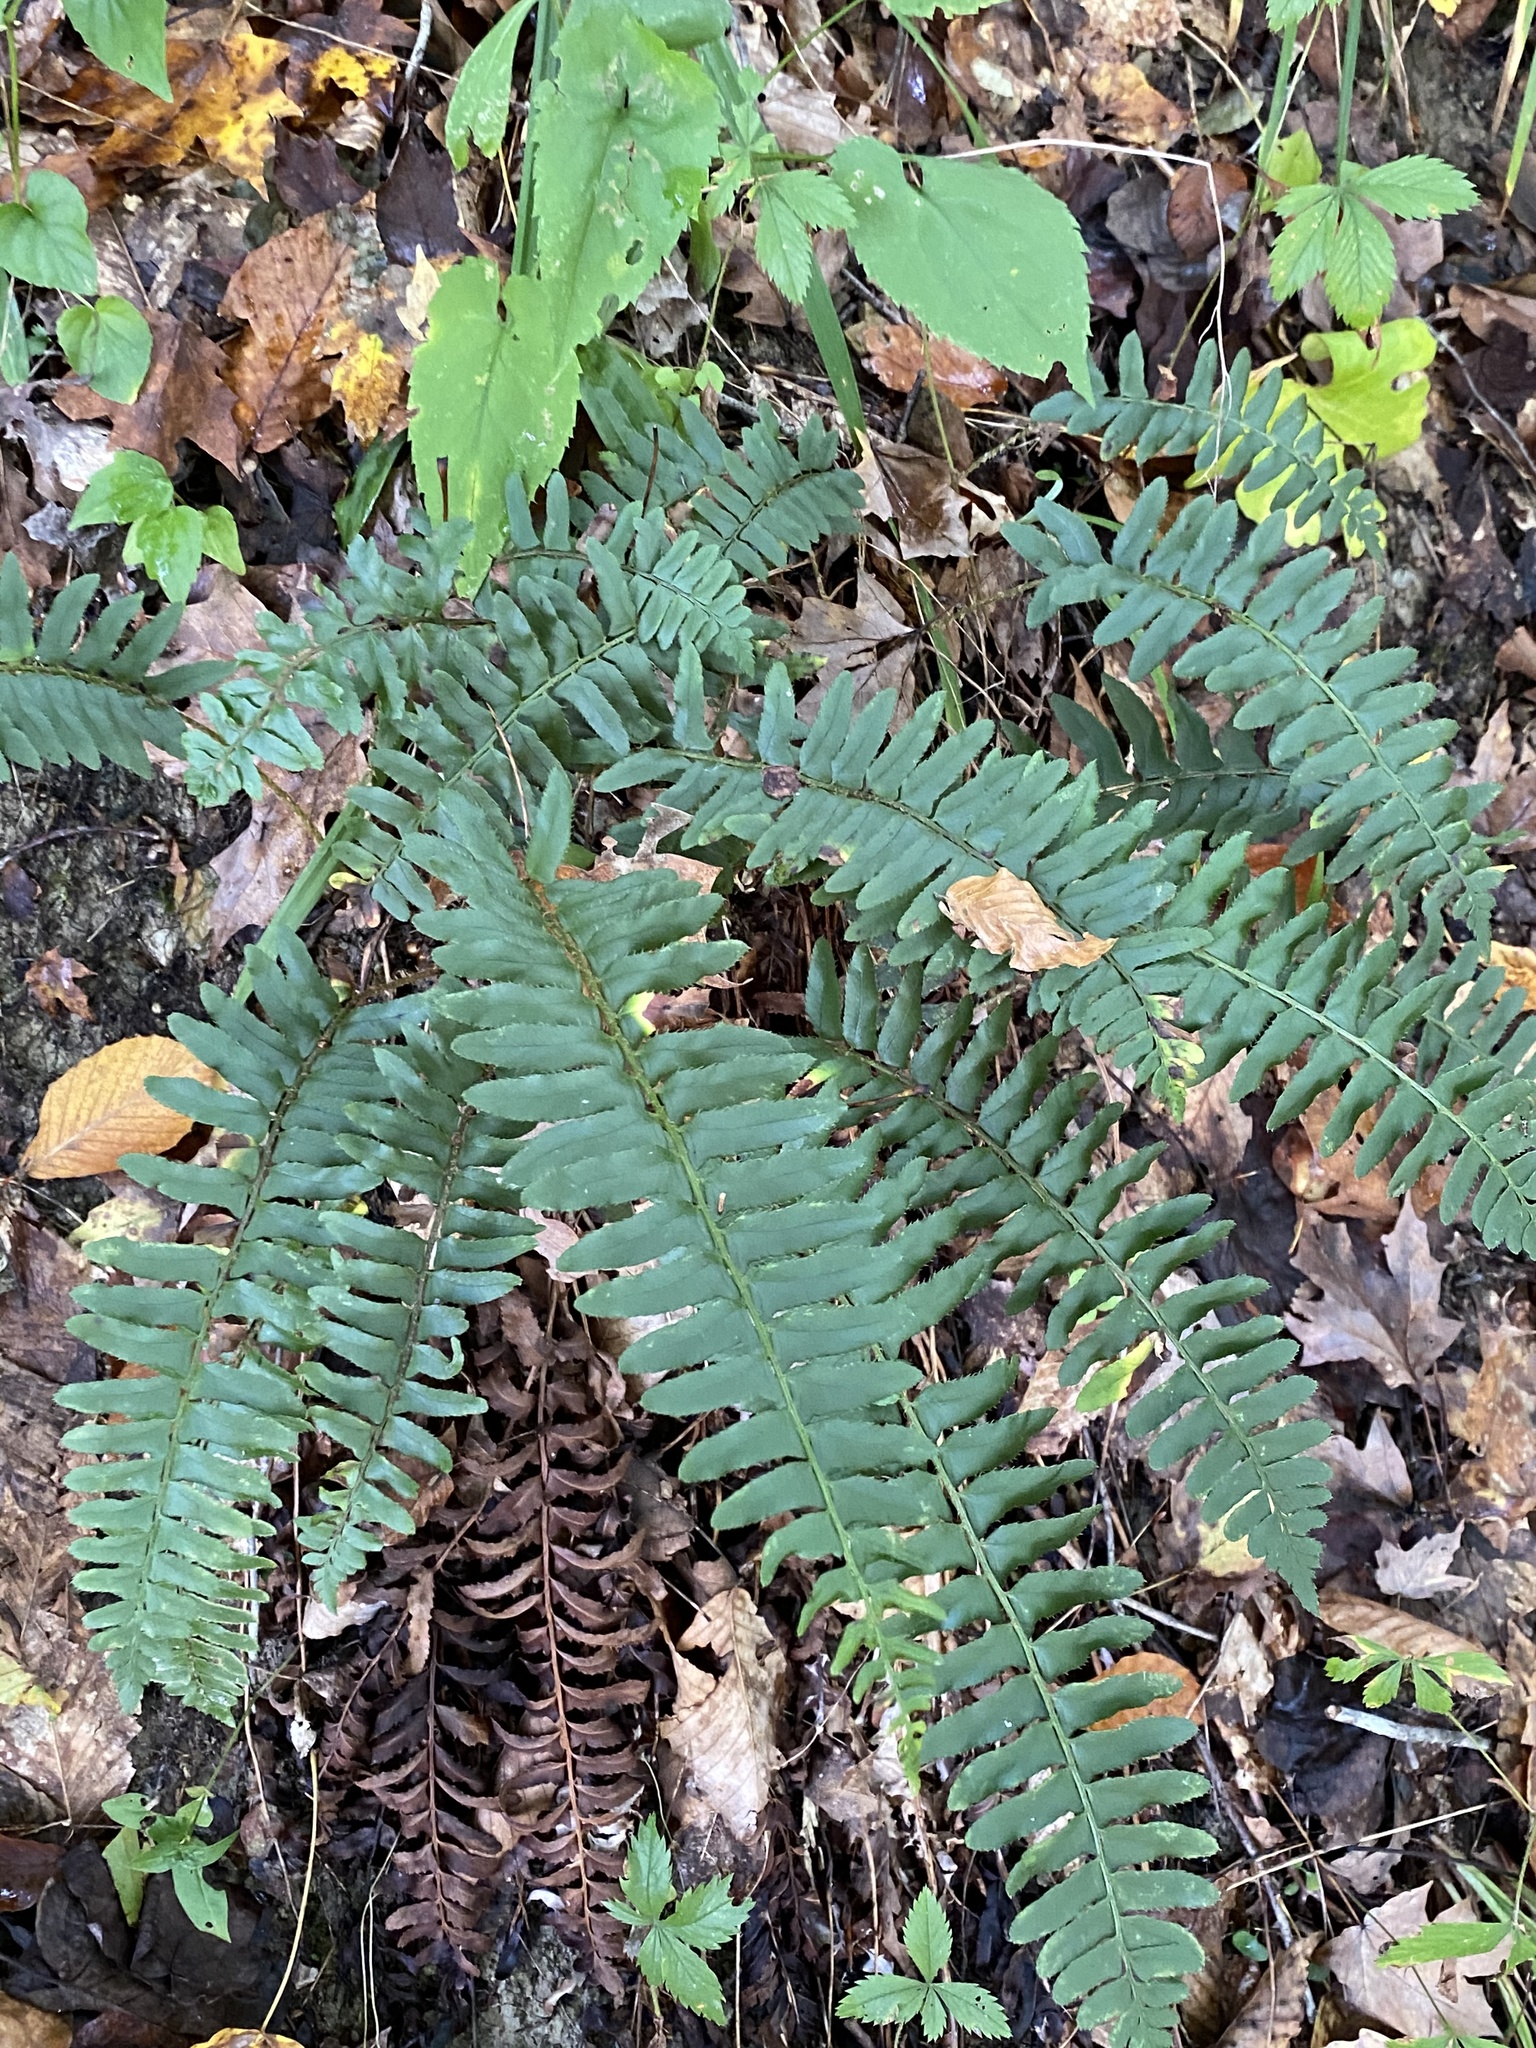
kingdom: Plantae
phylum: Tracheophyta
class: Polypodiopsida
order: Polypodiales
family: Dryopteridaceae
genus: Polystichum
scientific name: Polystichum acrostichoides
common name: Christmas fern
